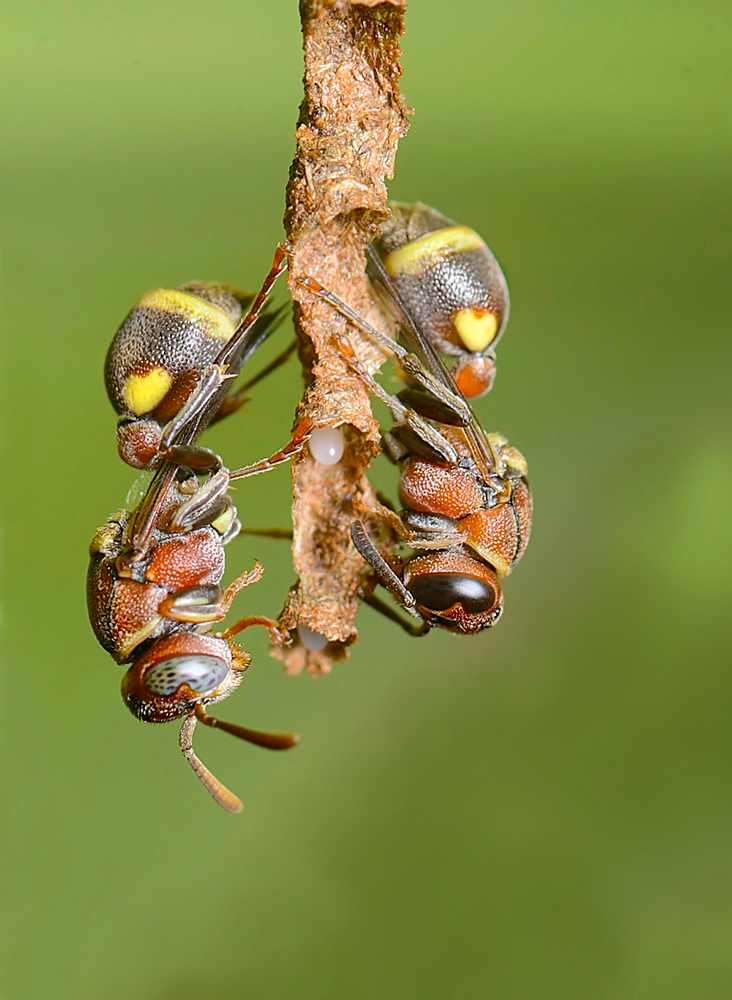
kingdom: Animalia
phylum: Arthropoda
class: Insecta
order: Hymenoptera
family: Vespidae
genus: Ropalidia
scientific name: Ropalidia jacobsoni
